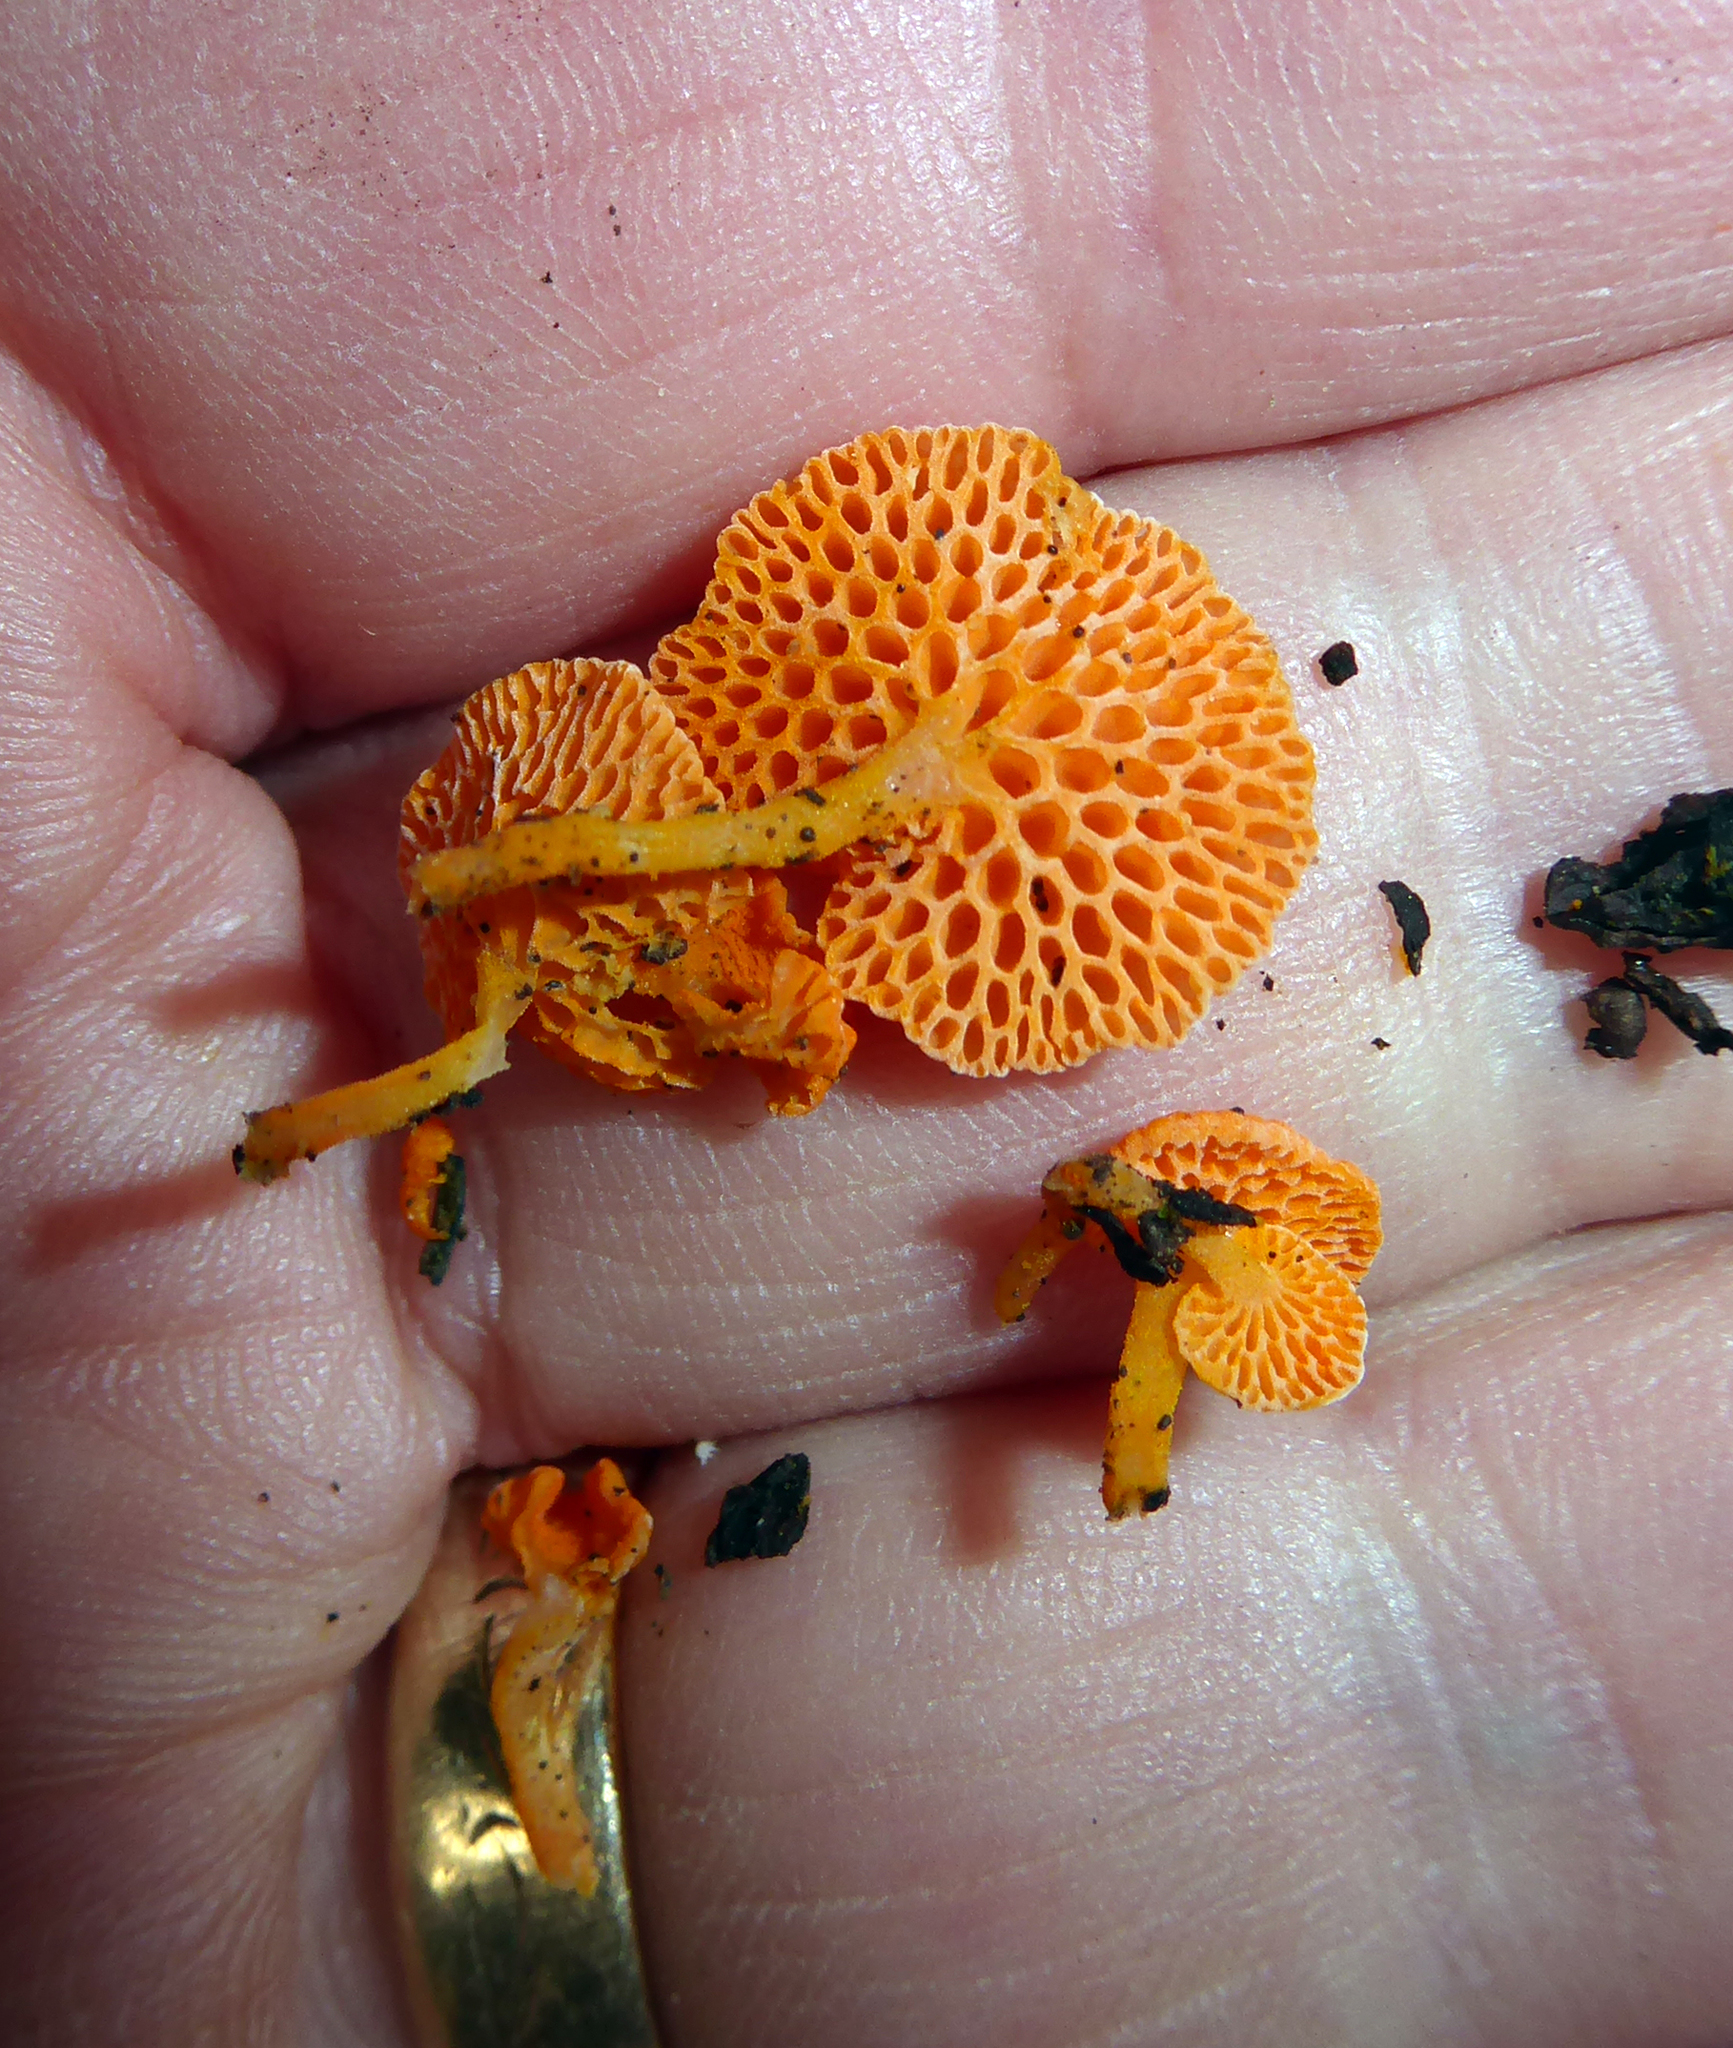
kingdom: Fungi
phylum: Basidiomycota
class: Agaricomycetes
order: Agaricales
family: Mycenaceae
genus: Favolaschia
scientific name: Favolaschia claudopus
